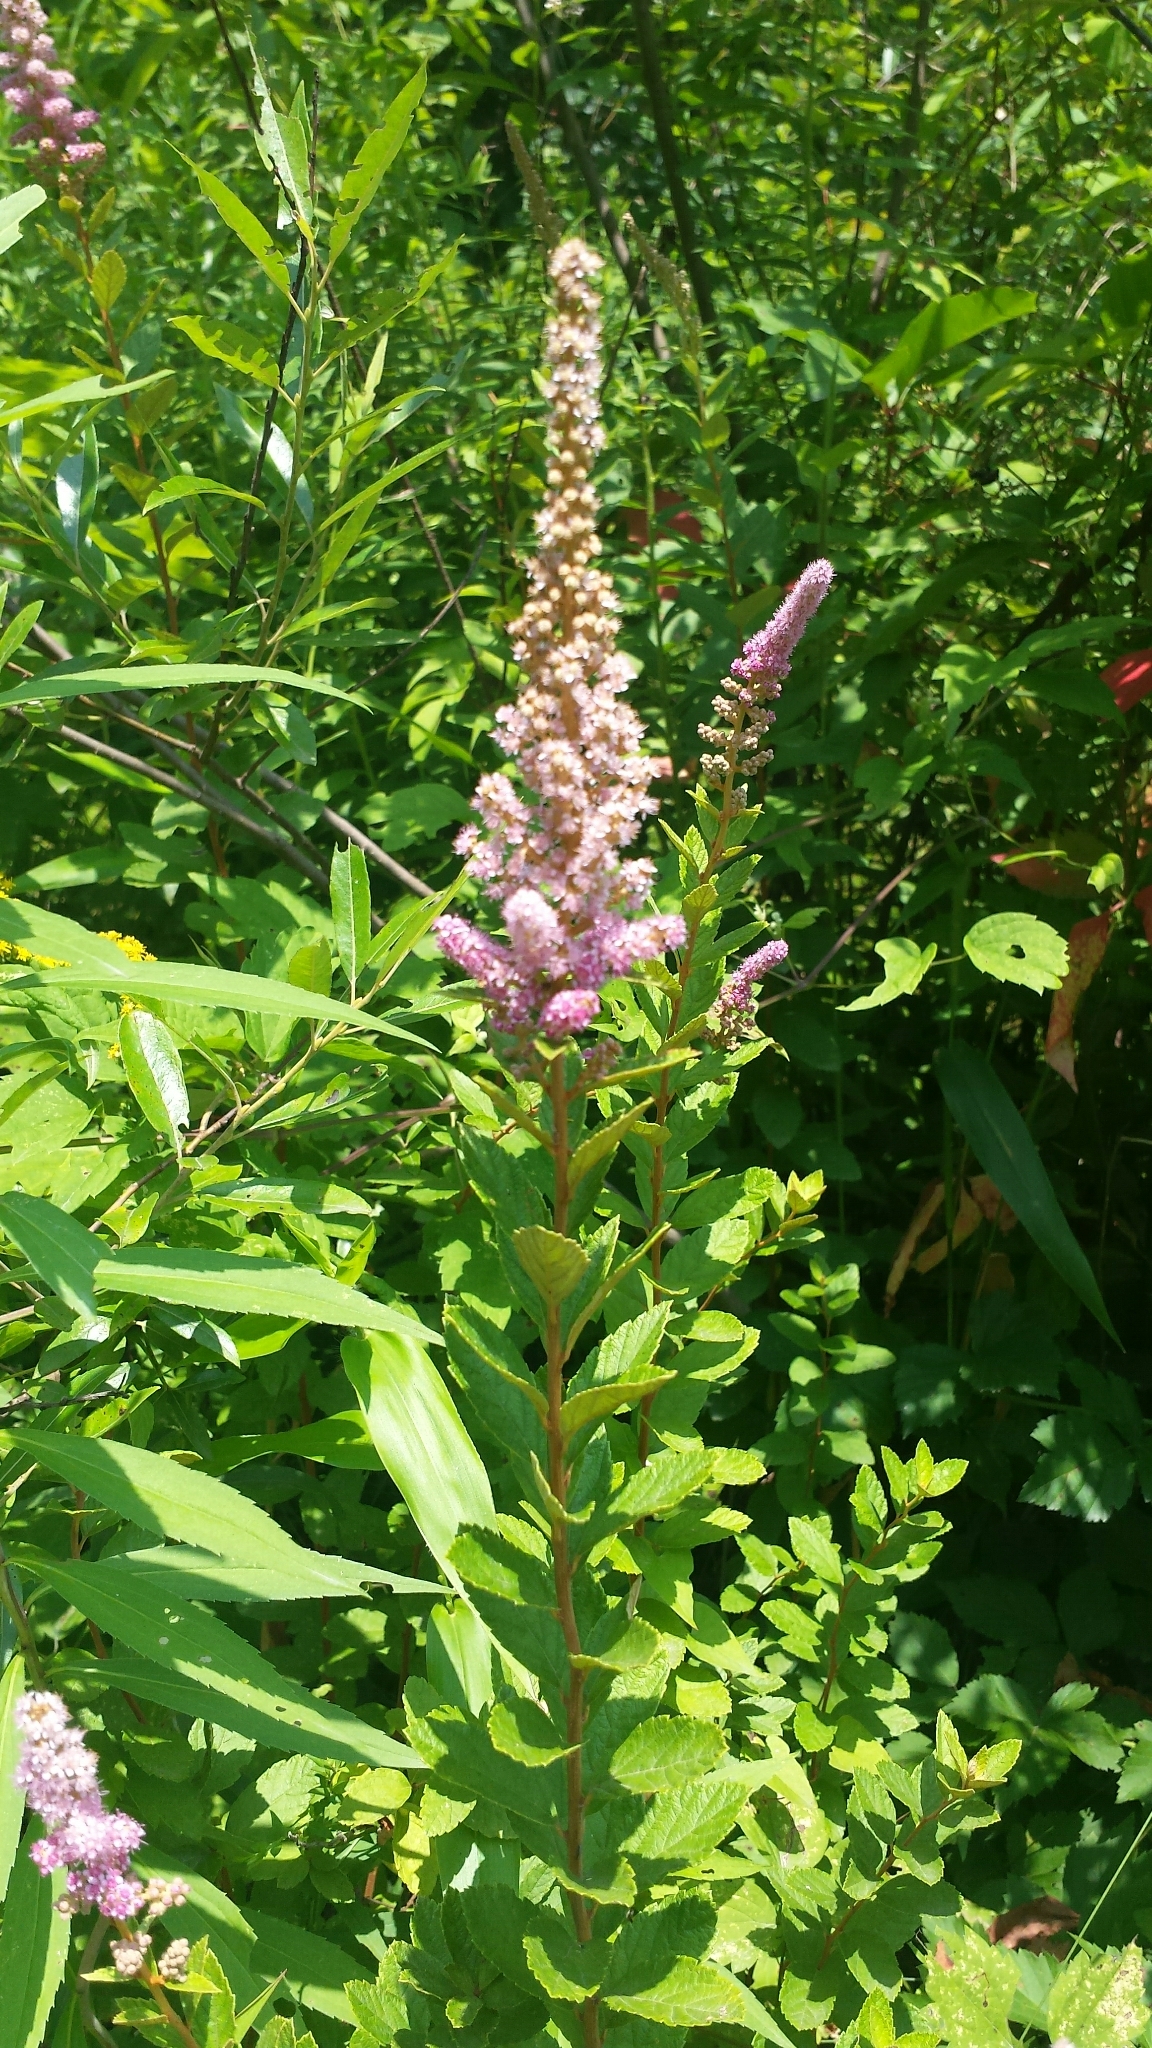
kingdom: Plantae
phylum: Tracheophyta
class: Magnoliopsida
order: Rosales
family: Rosaceae
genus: Spiraea
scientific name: Spiraea tomentosa
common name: Hardhack
